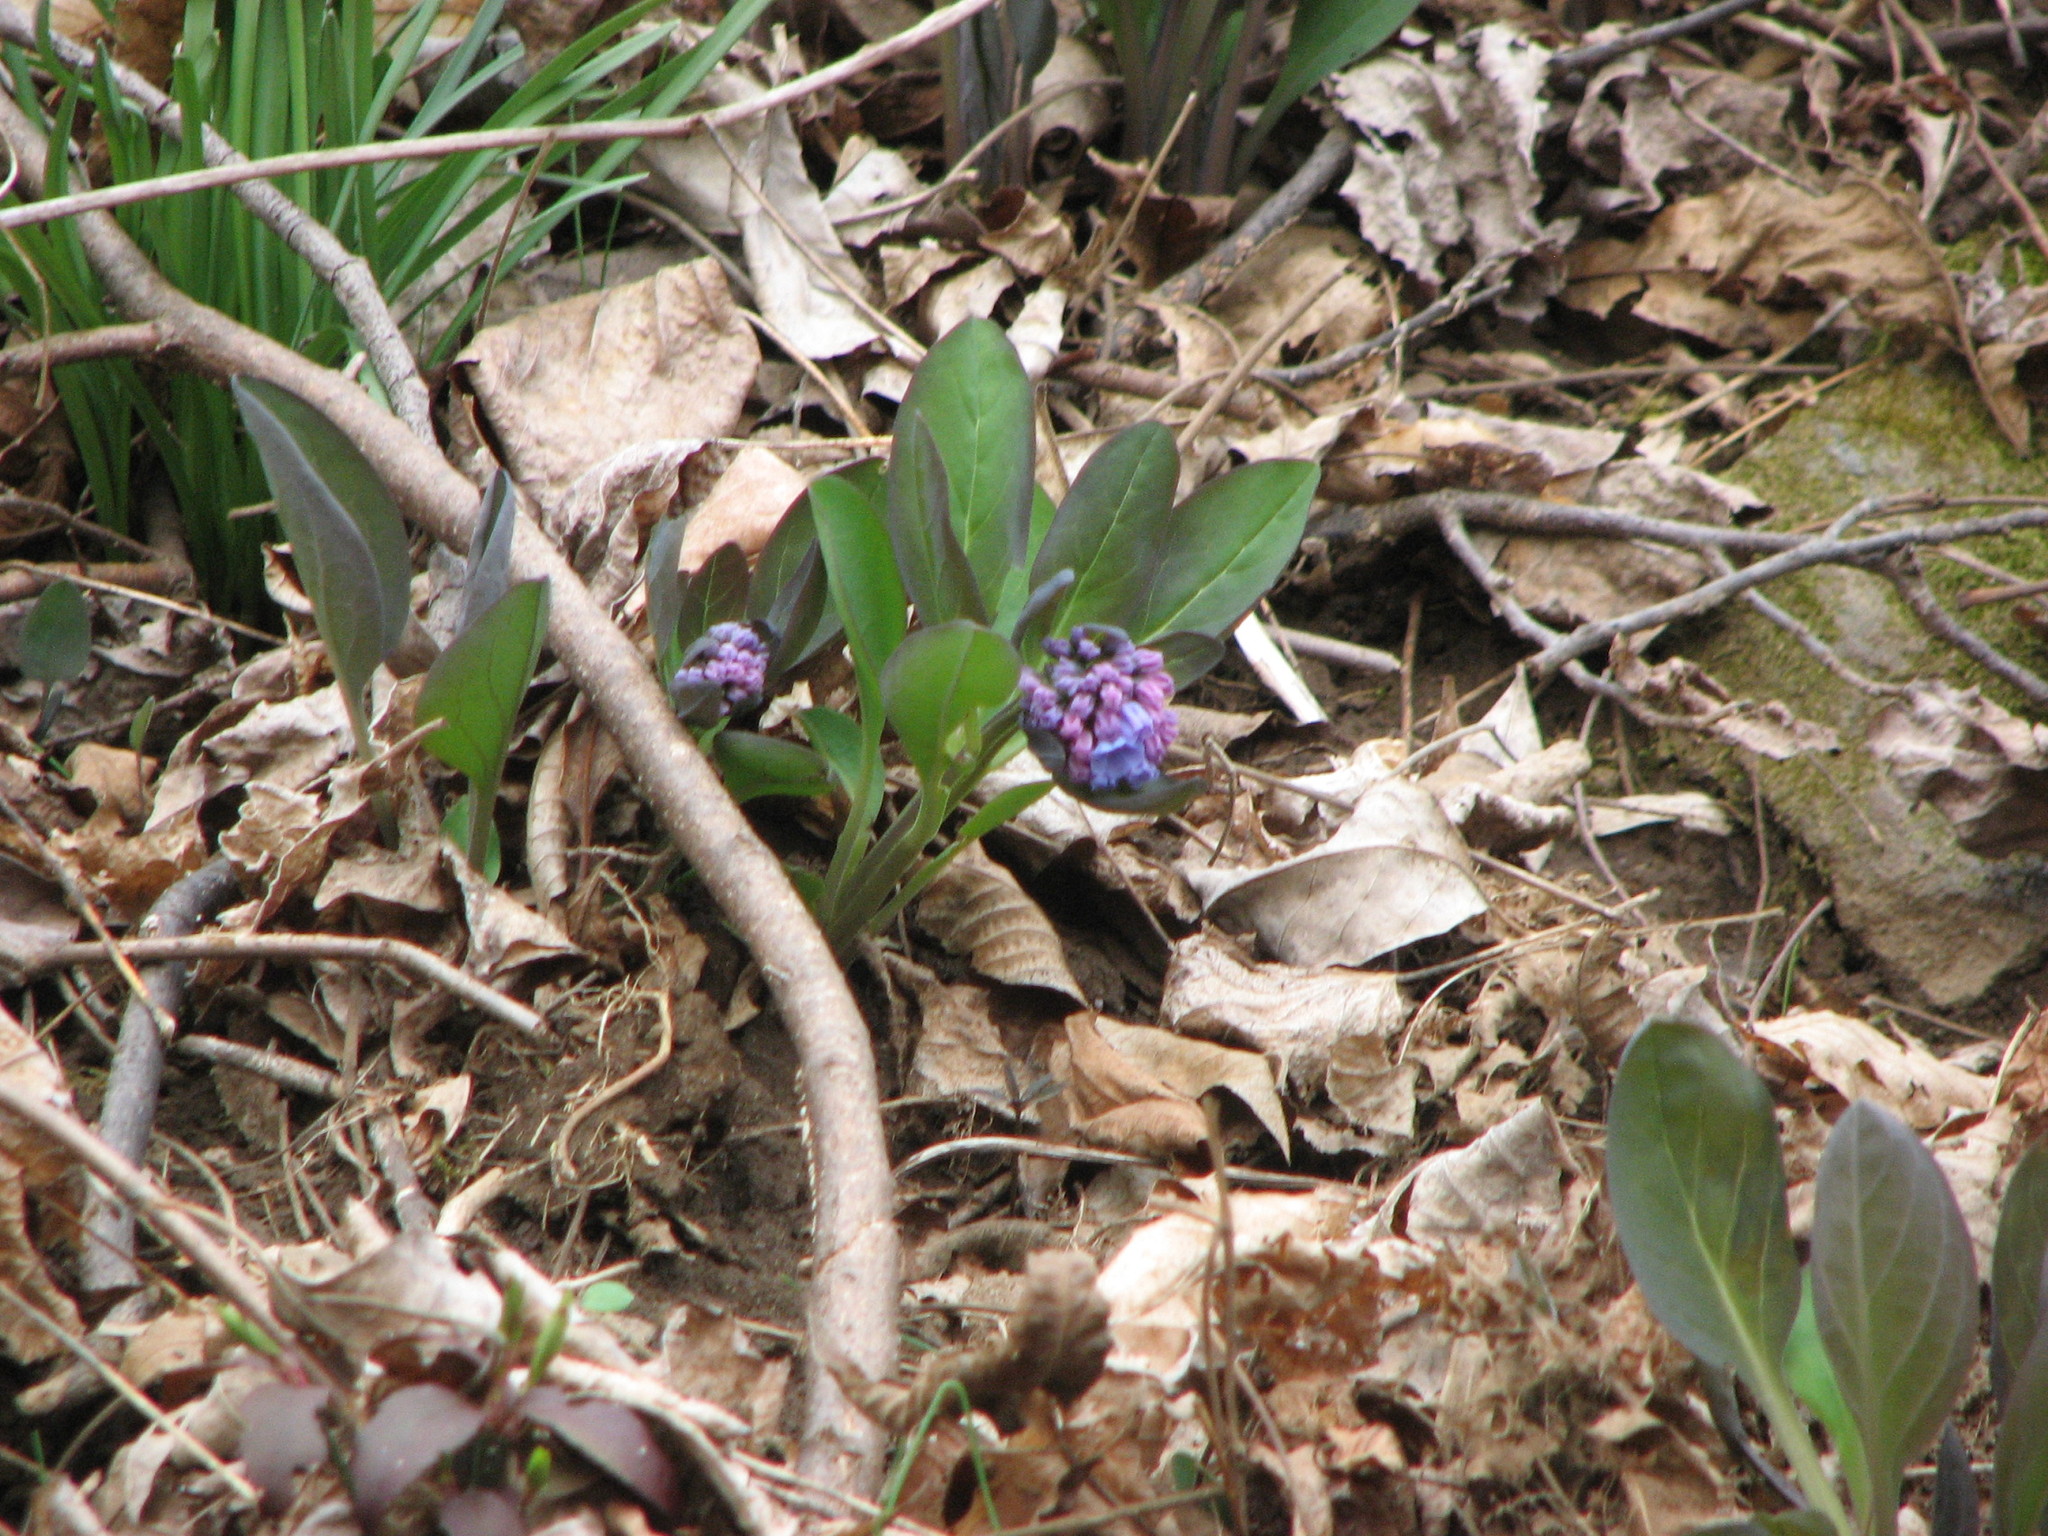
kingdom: Plantae
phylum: Tracheophyta
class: Magnoliopsida
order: Boraginales
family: Boraginaceae
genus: Mertensia
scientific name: Mertensia virginica
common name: Virginia bluebells
